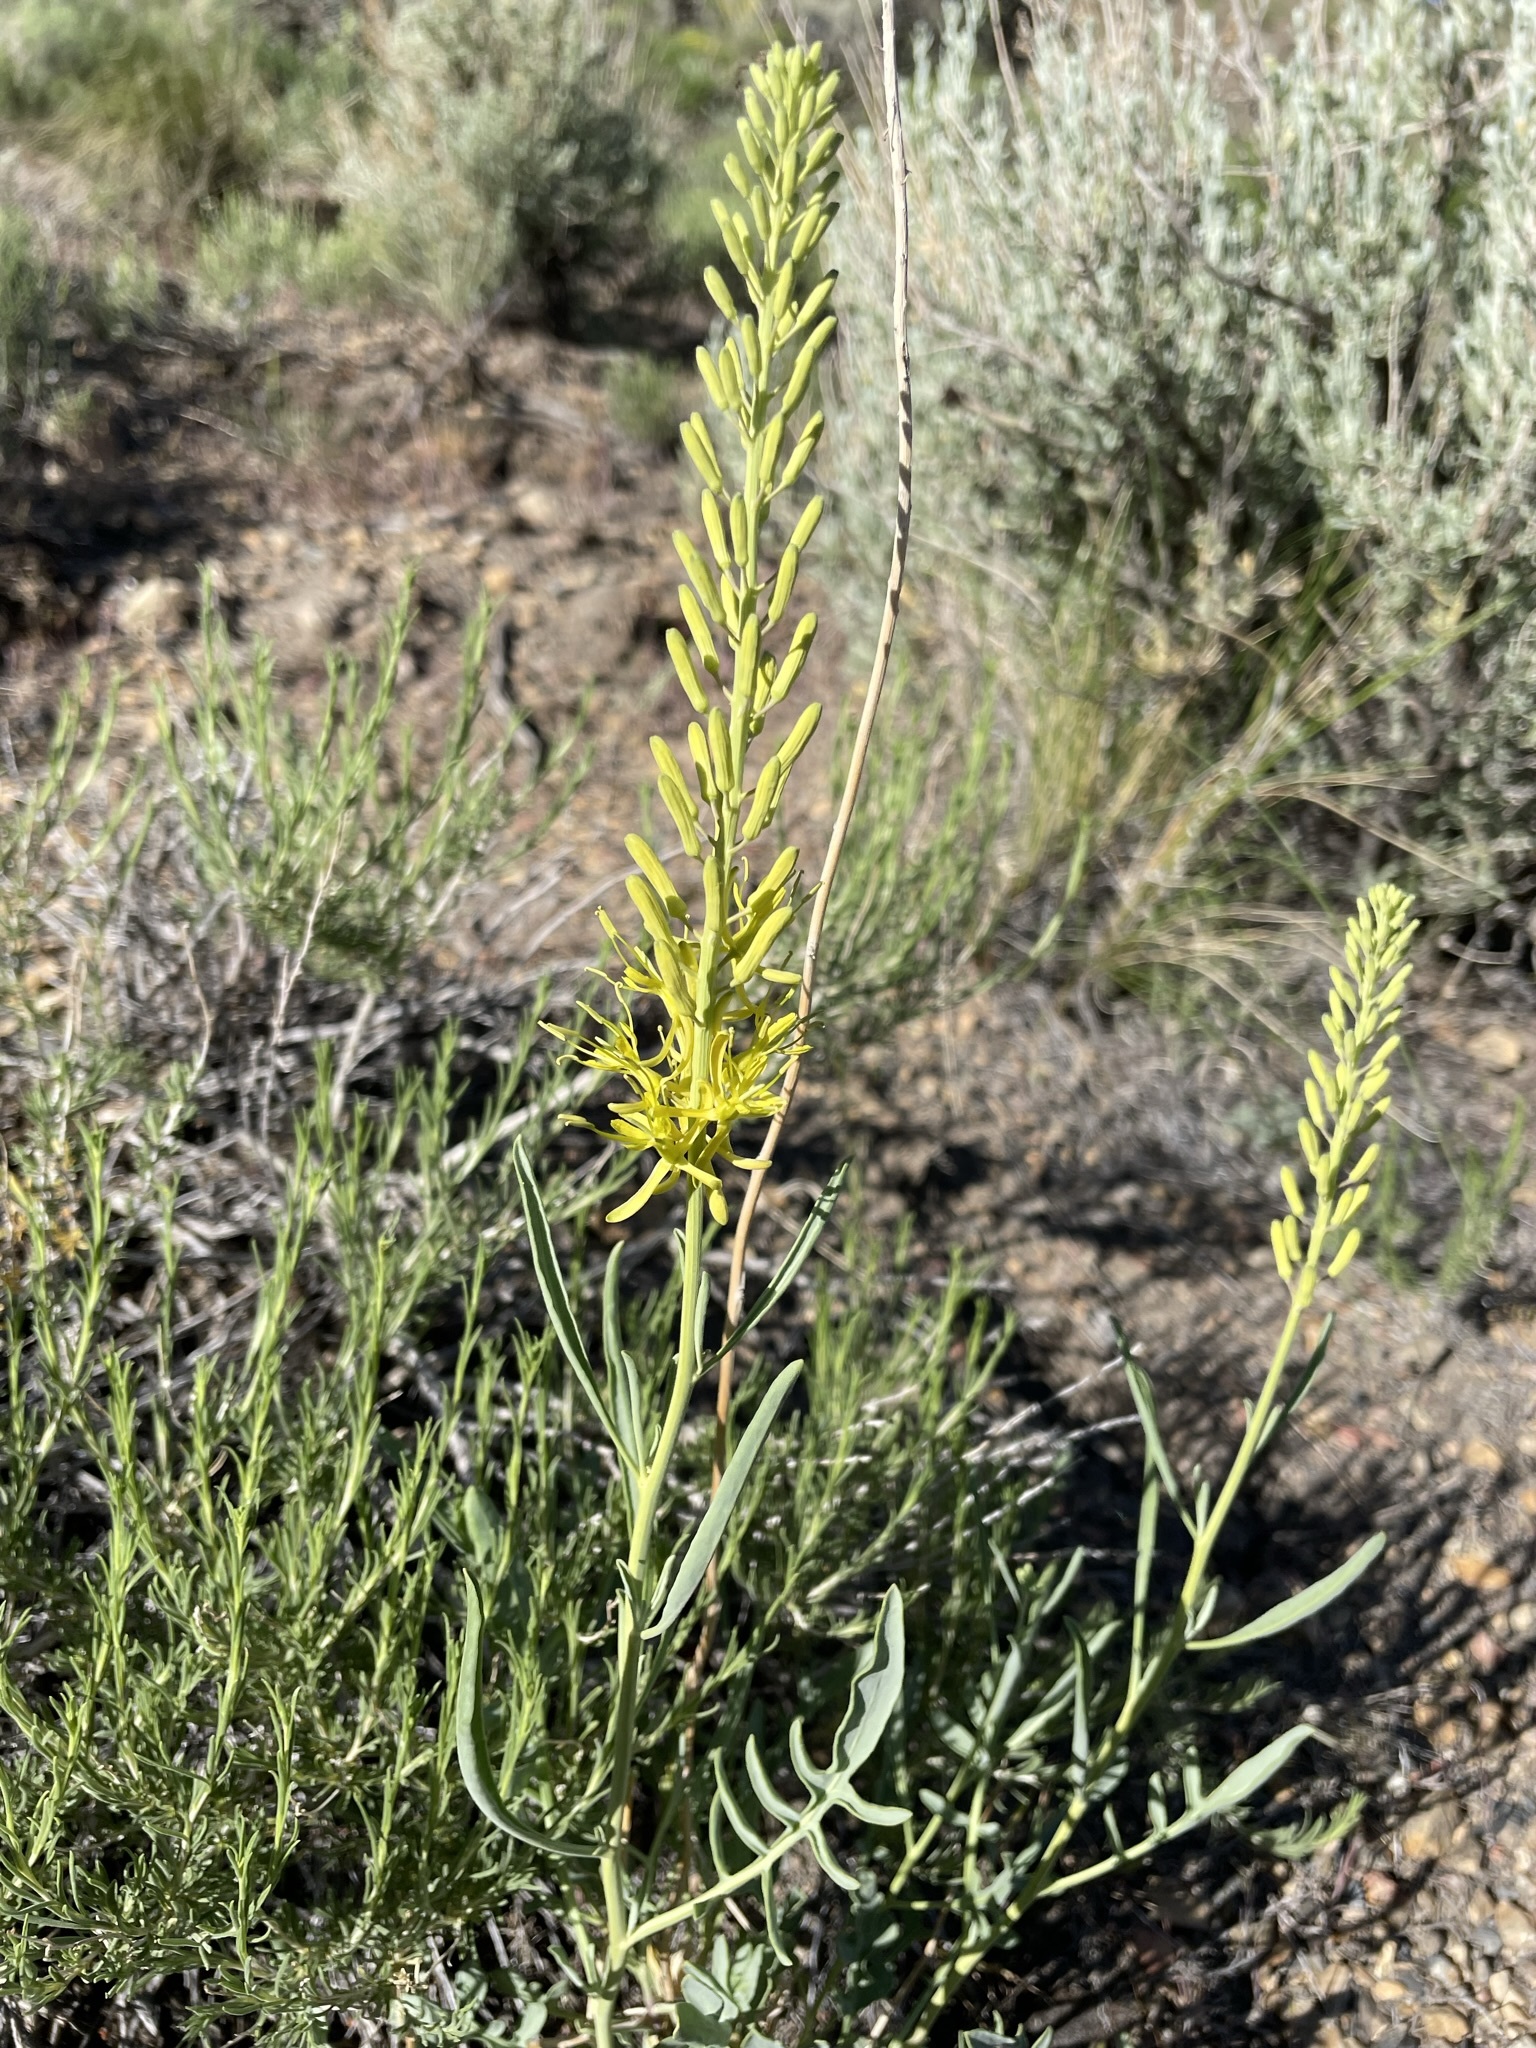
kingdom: Plantae
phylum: Tracheophyta
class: Magnoliopsida
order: Brassicales
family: Brassicaceae
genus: Stanleya
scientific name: Stanleya pinnata
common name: Prince's-plume
